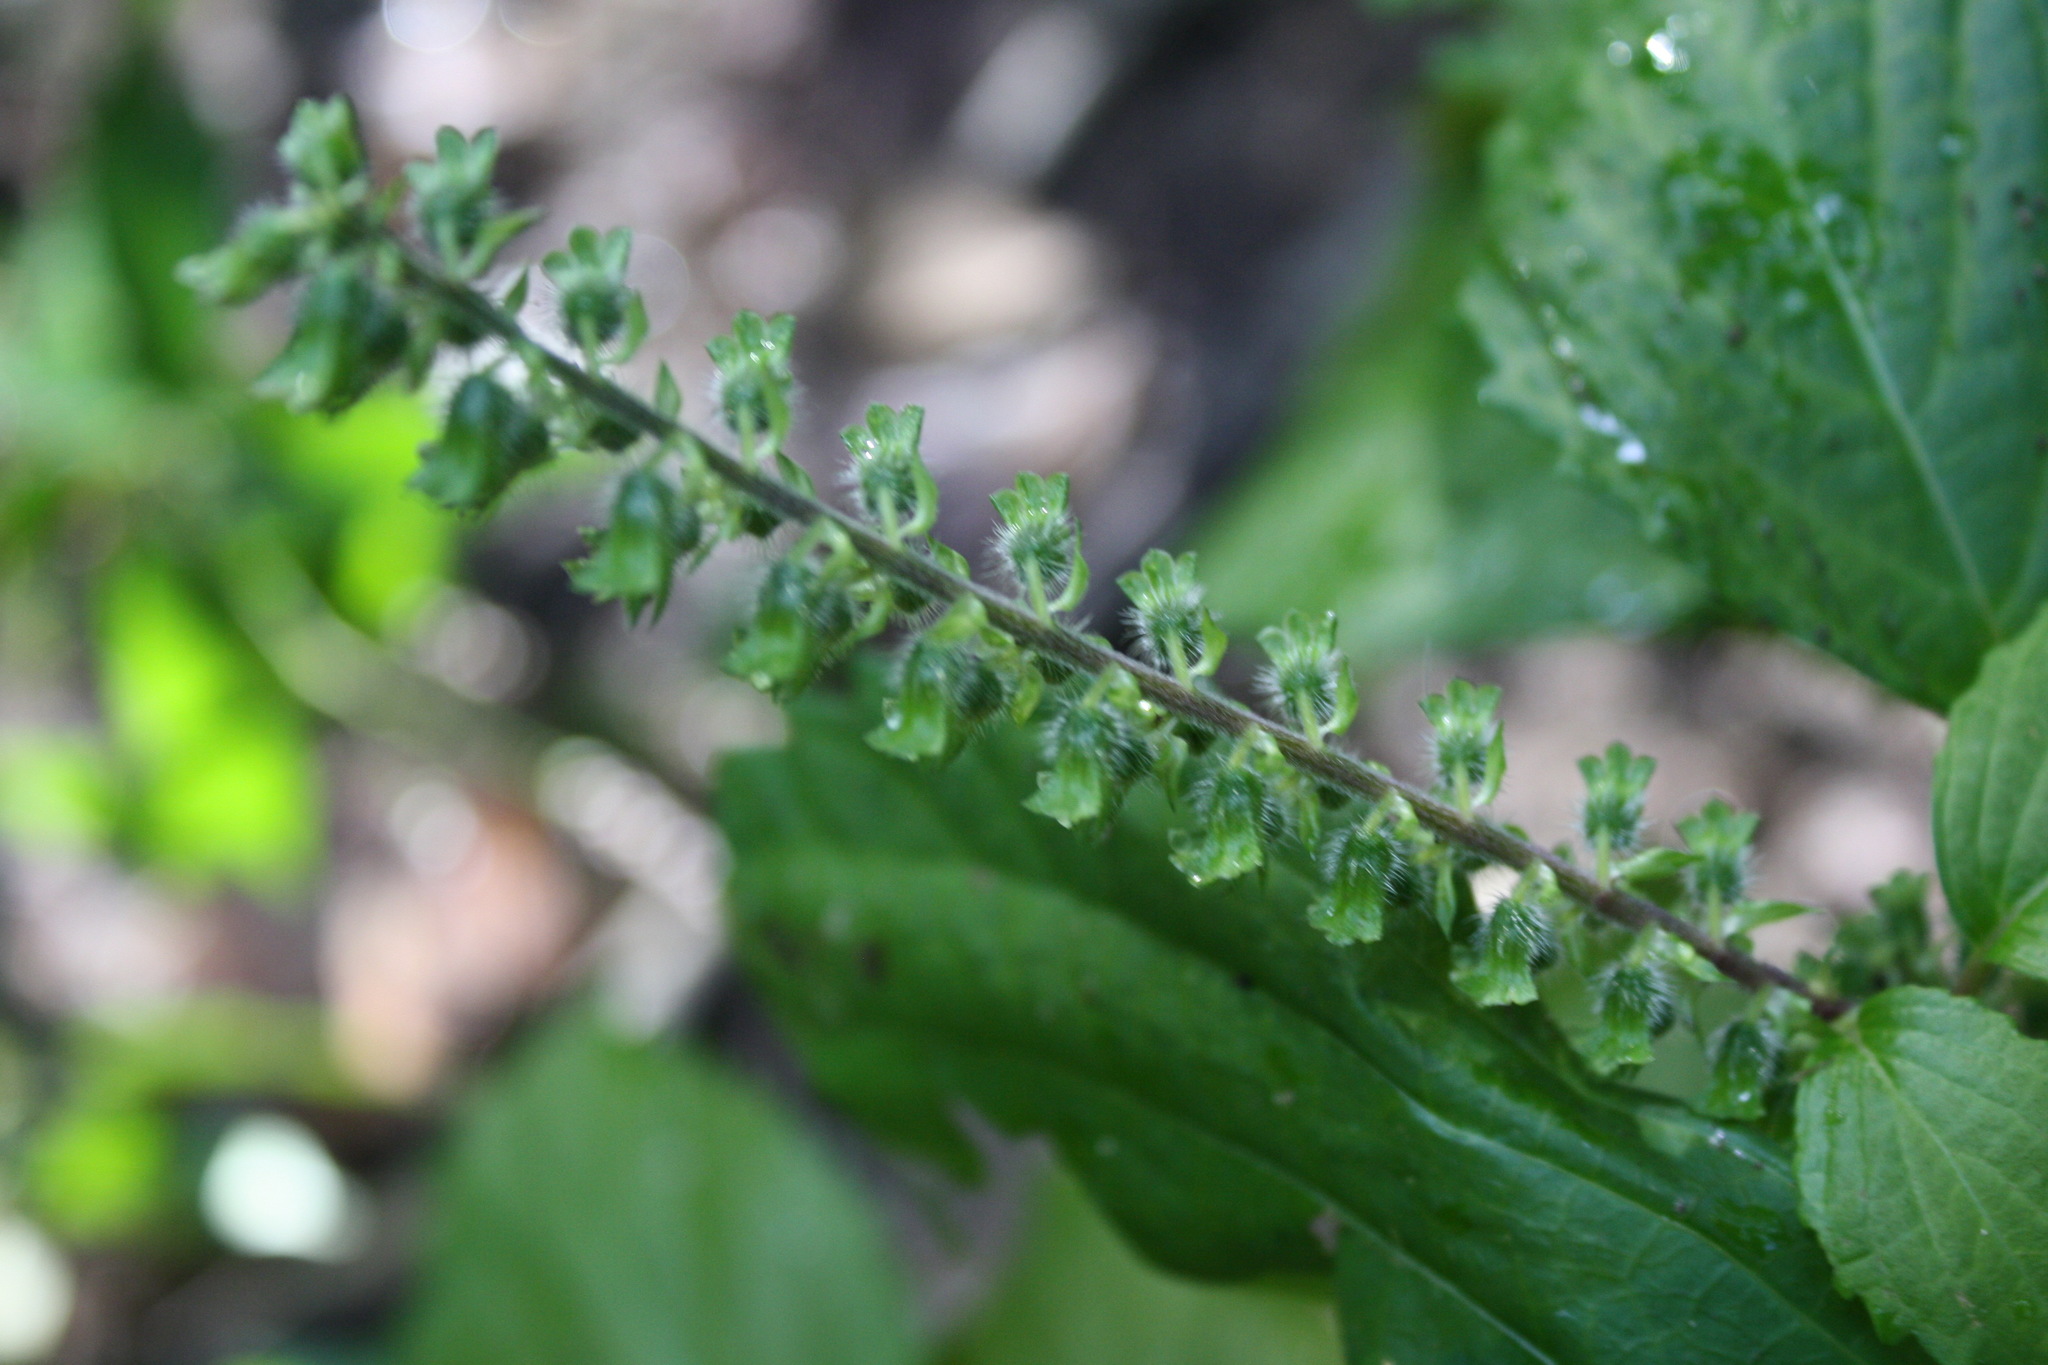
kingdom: Plantae
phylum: Tracheophyta
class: Magnoliopsida
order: Lamiales
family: Lamiaceae
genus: Perilla
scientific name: Perilla frutescens
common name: Perilla
